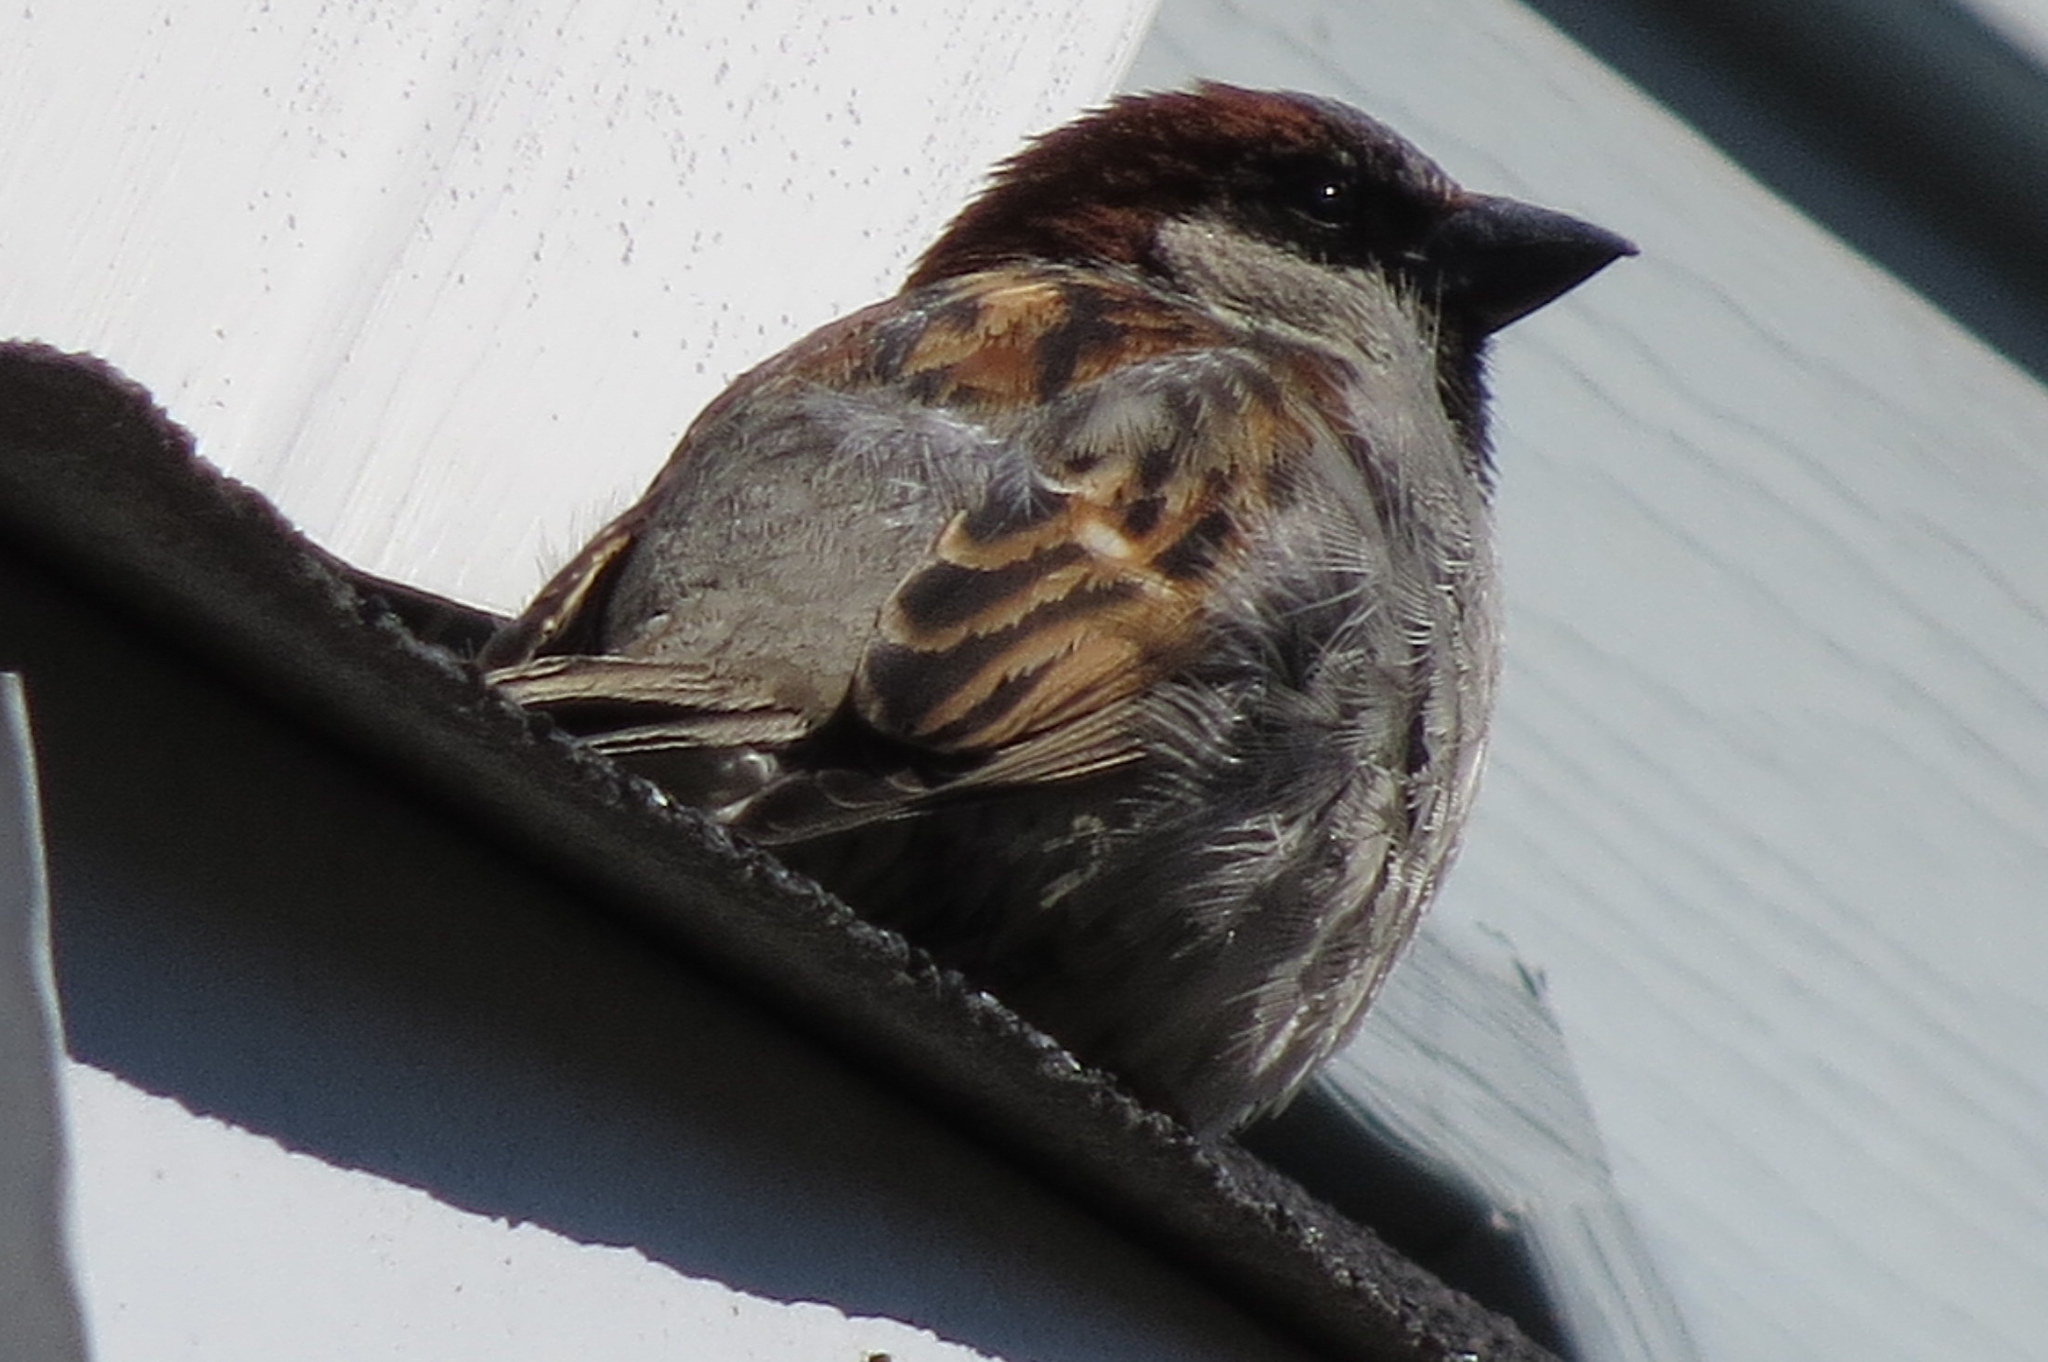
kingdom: Animalia
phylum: Chordata
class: Aves
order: Passeriformes
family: Passeridae
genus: Passer
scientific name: Passer domesticus
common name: House sparrow
